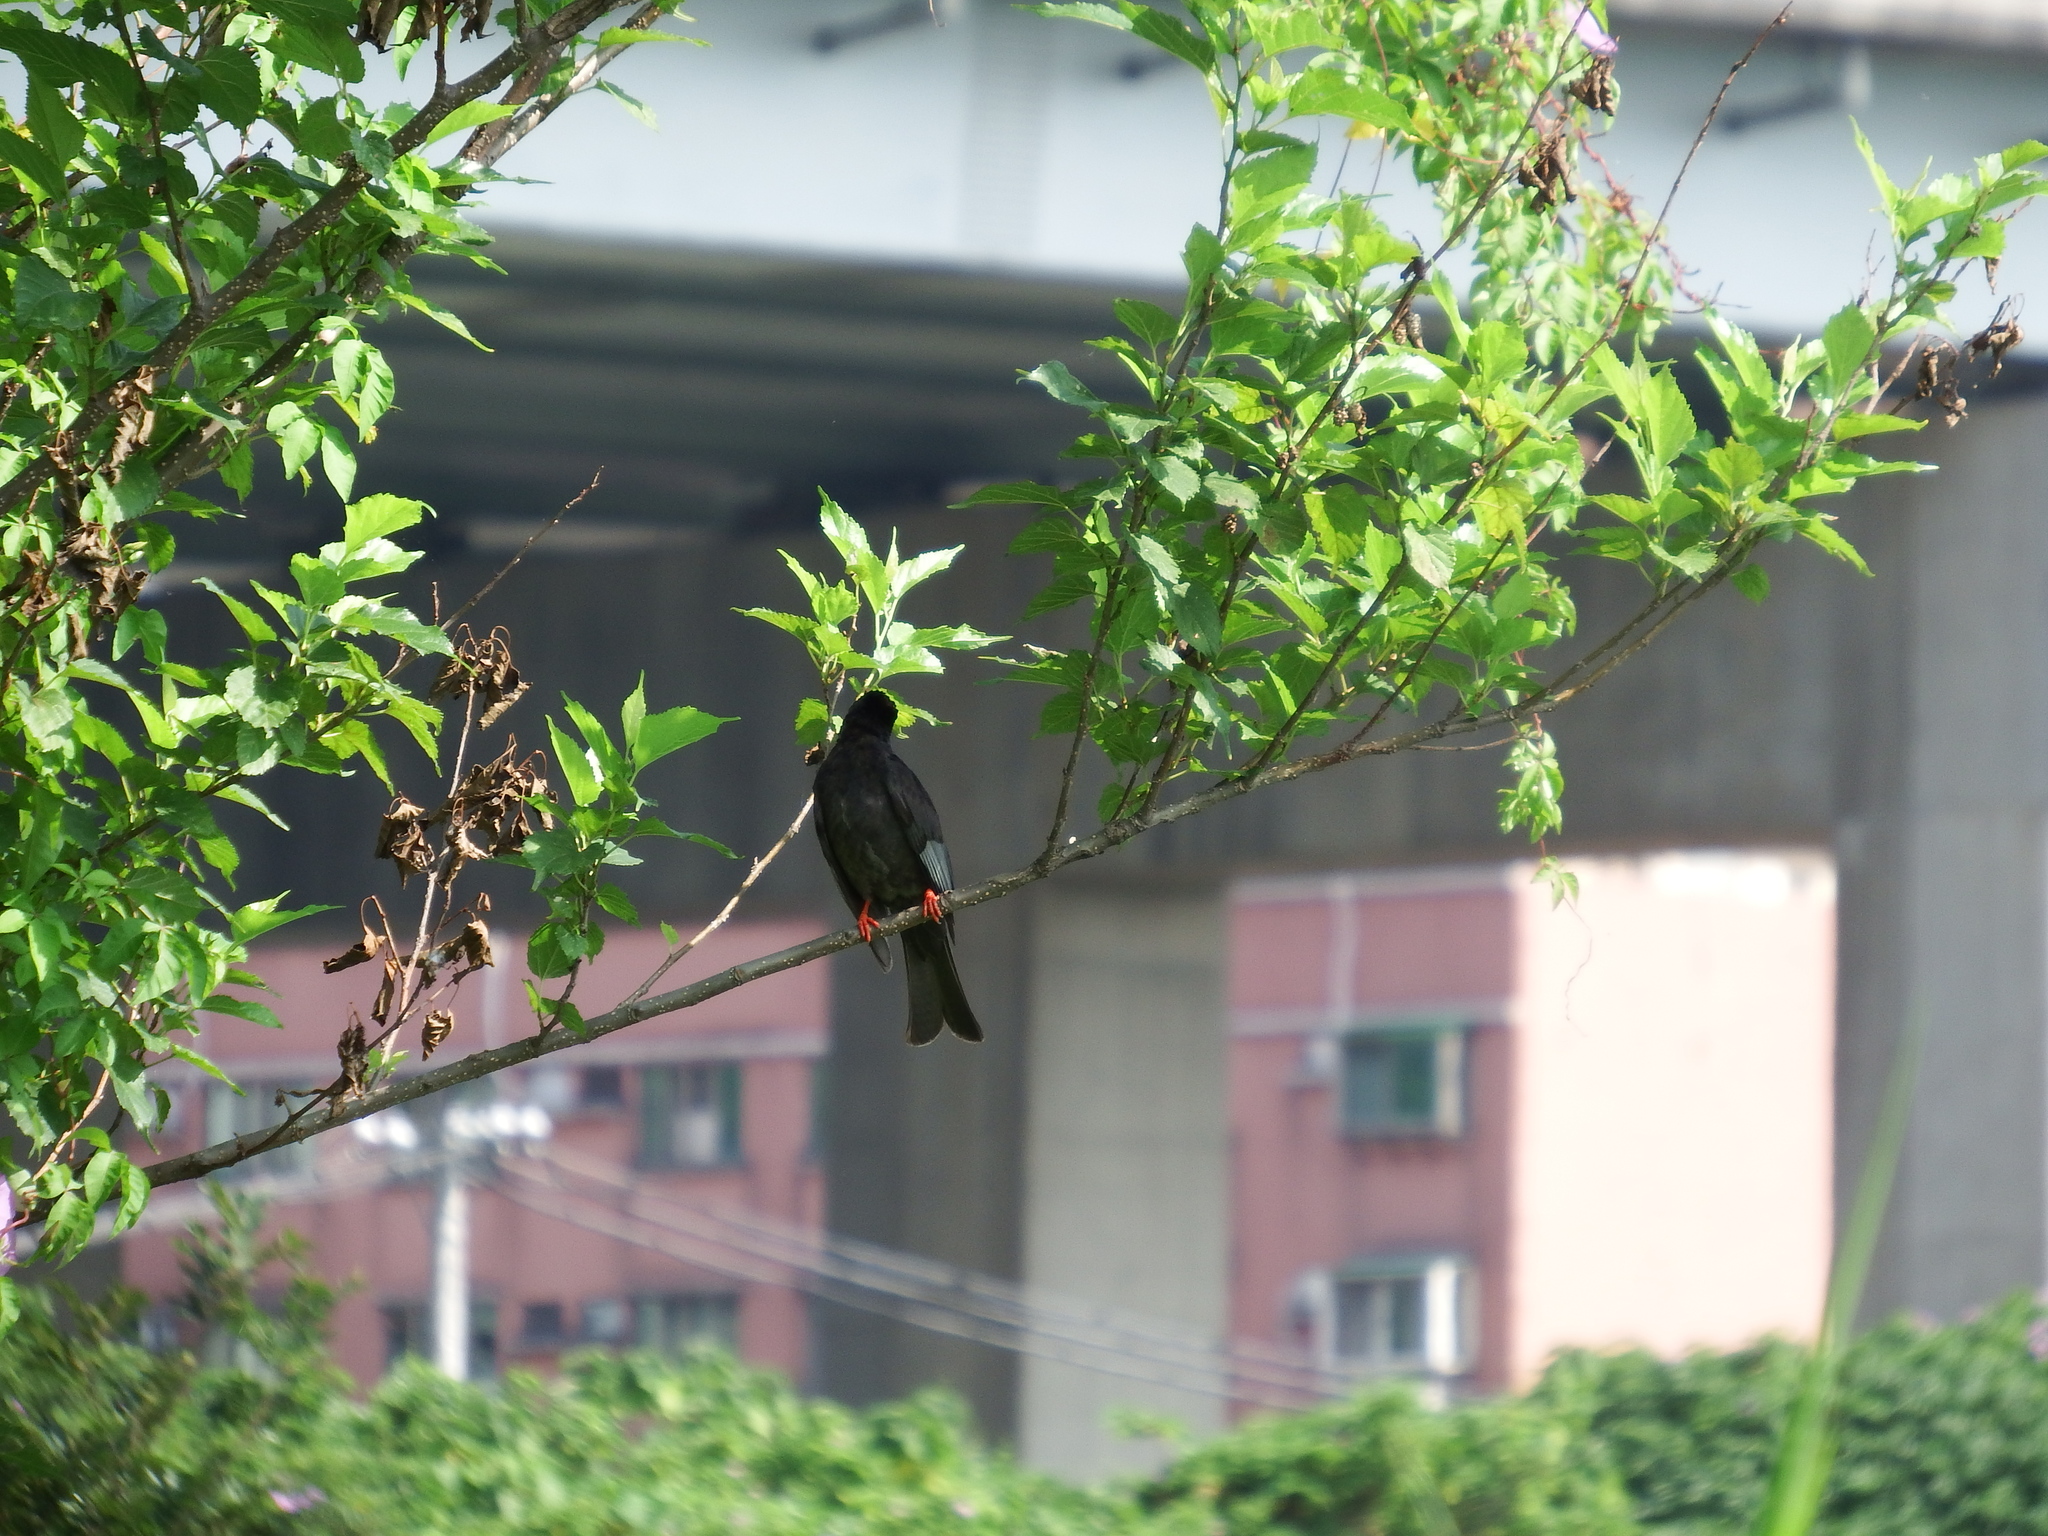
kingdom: Animalia
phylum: Chordata
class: Aves
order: Passeriformes
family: Pycnonotidae
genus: Hypsipetes
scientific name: Hypsipetes leucocephalus
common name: Black bulbul
